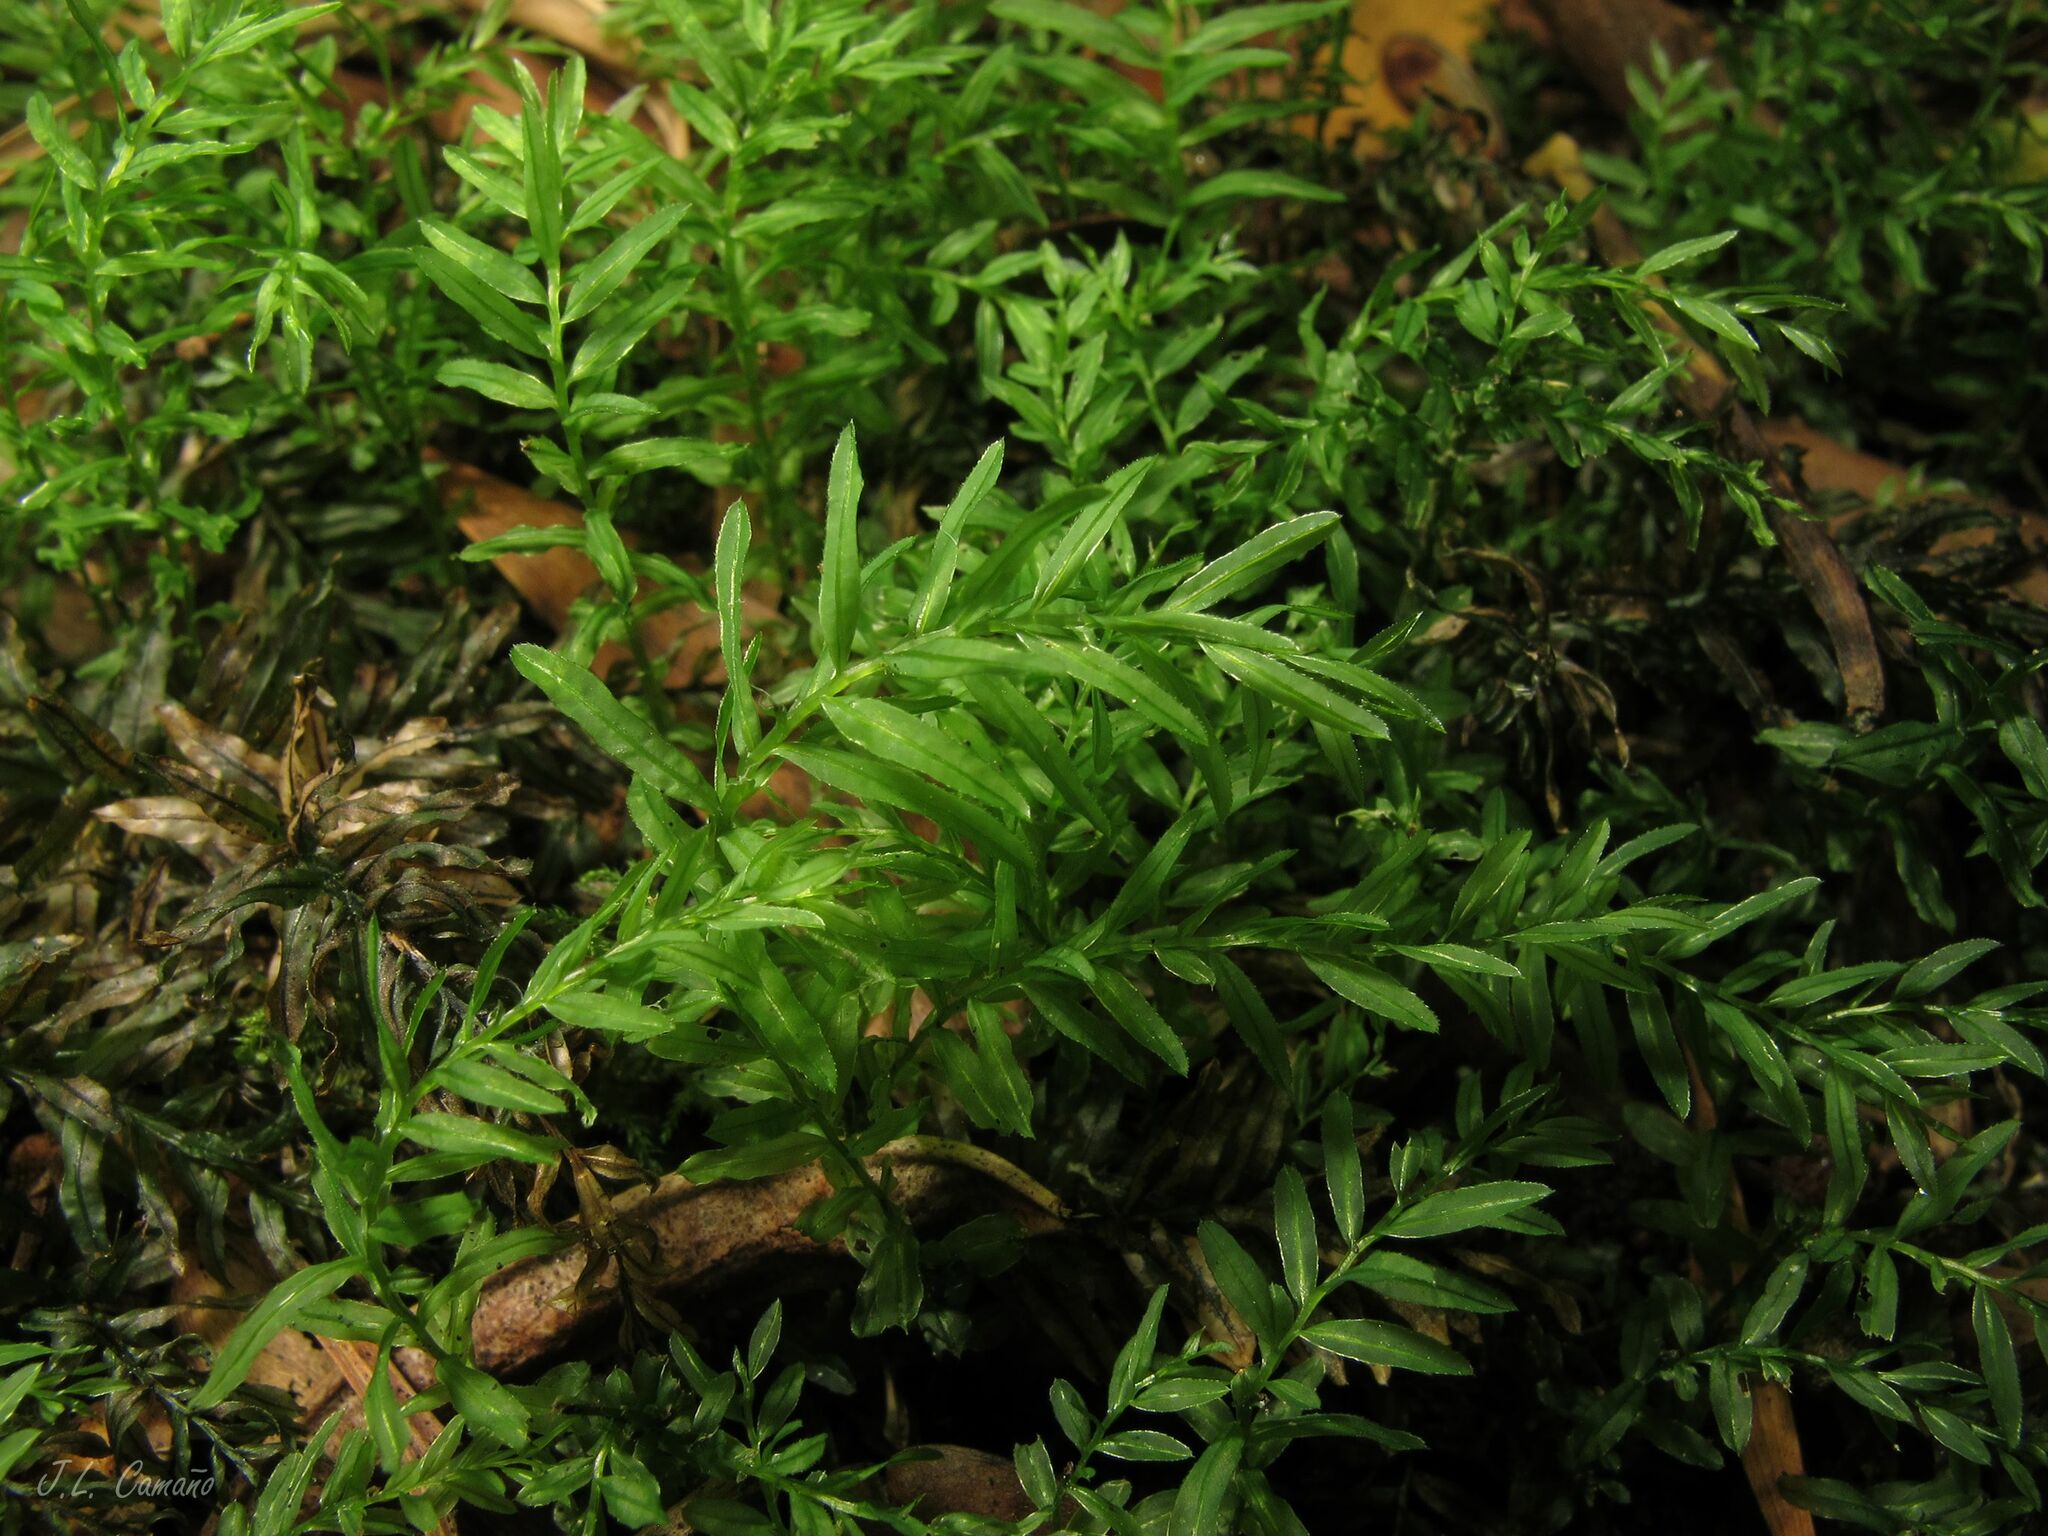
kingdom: Plantae
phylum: Bryophyta
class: Bryopsida
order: Bryales
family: Mniaceae
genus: Plagiomnium
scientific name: Plagiomnium undulatum
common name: Hart's-tongue thyme-moss
